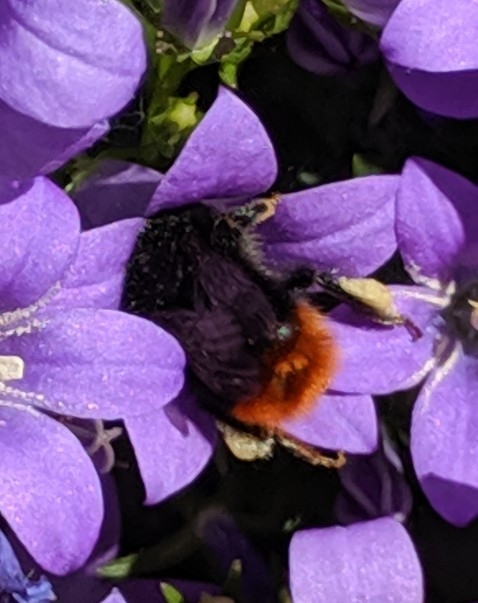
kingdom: Animalia
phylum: Arthropoda
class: Insecta
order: Hymenoptera
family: Apidae
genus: Bombus
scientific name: Bombus lapidarius
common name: Large red-tailed humble-bee
